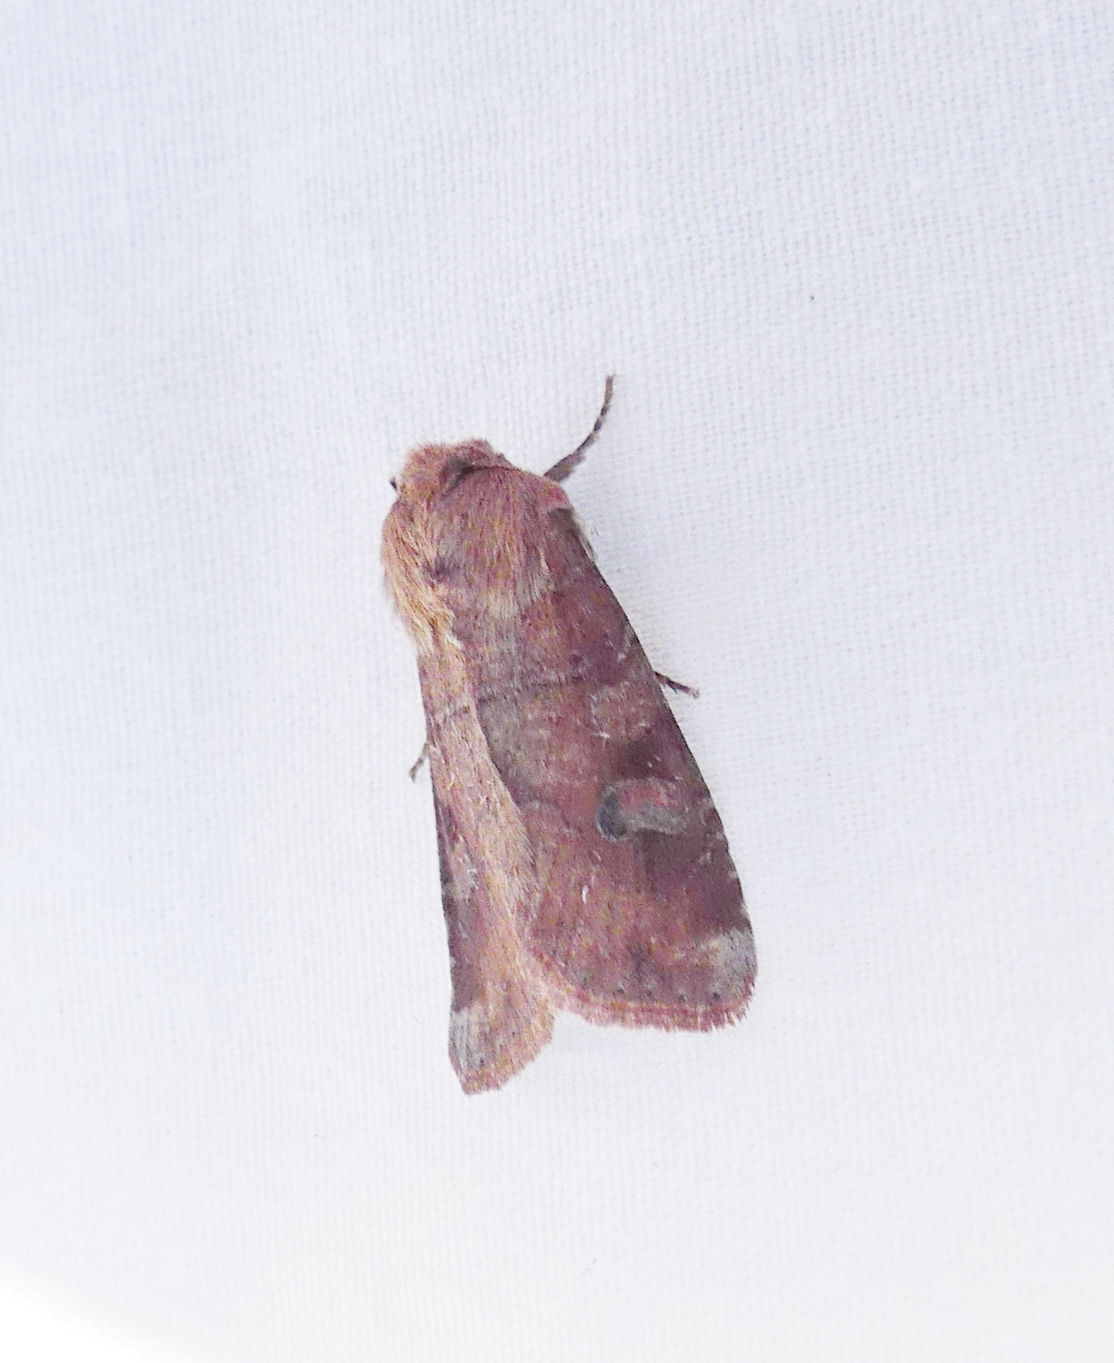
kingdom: Animalia
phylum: Arthropoda
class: Insecta
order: Lepidoptera
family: Noctuidae
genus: Crocigrapha
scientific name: Crocigrapha normani
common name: Norman's quaker
